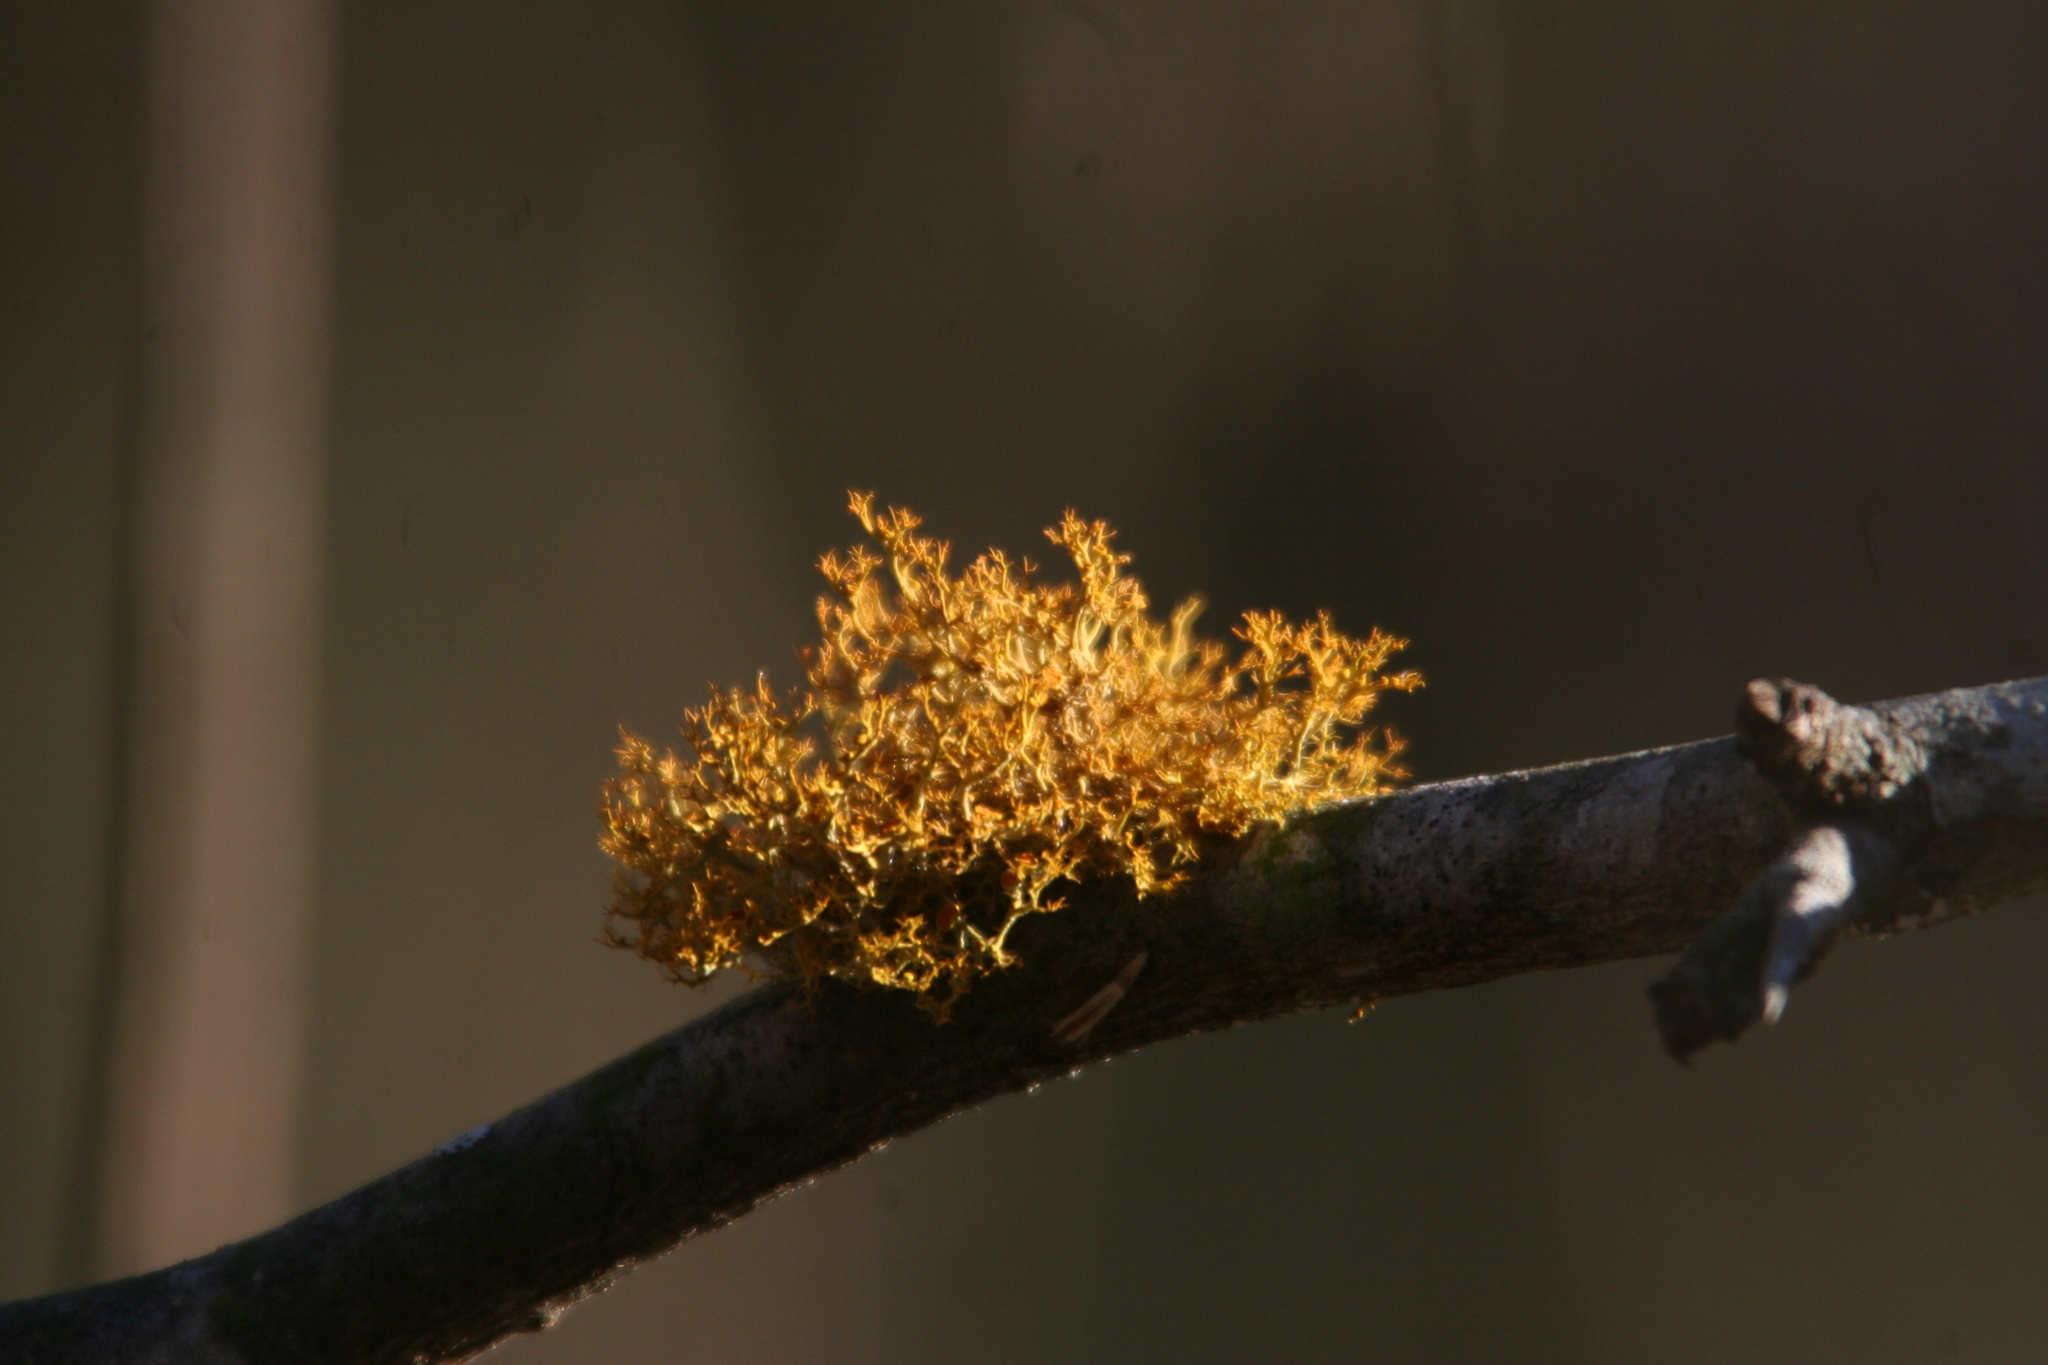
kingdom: Fungi
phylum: Ascomycota
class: Lecanoromycetes
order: Teloschistales
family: Teloschistaceae
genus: Teloschistes
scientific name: Teloschistes exilis
